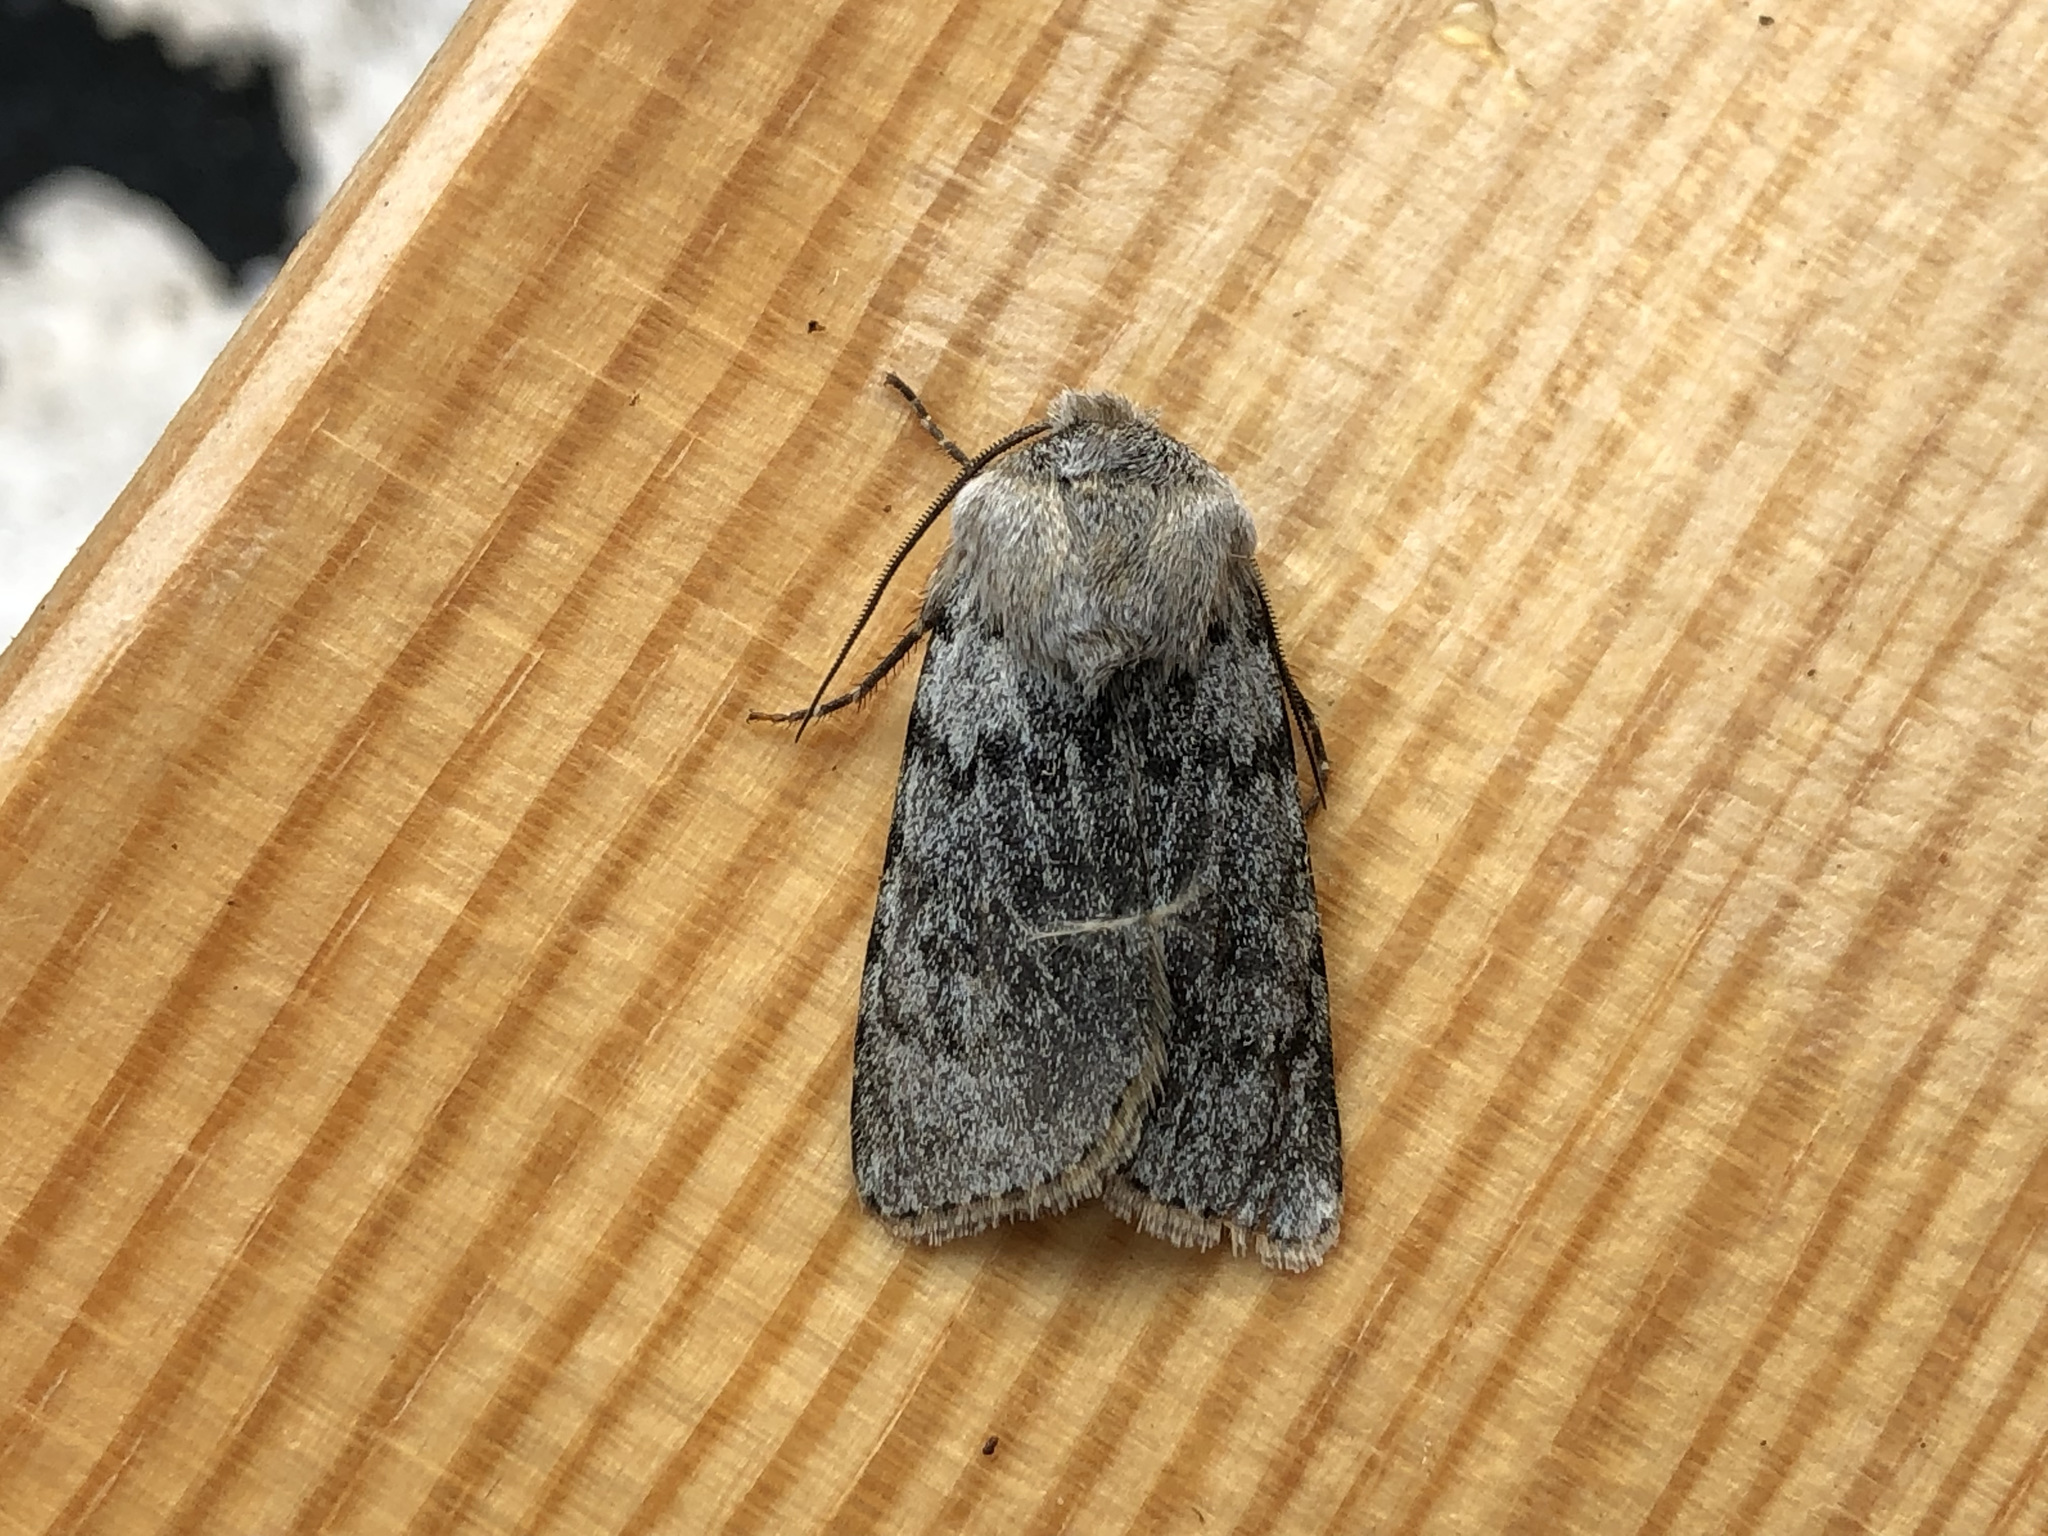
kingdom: Animalia
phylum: Arthropoda
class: Insecta
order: Lepidoptera
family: Noctuidae
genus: Agrotis
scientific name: Agrotis simplonia
